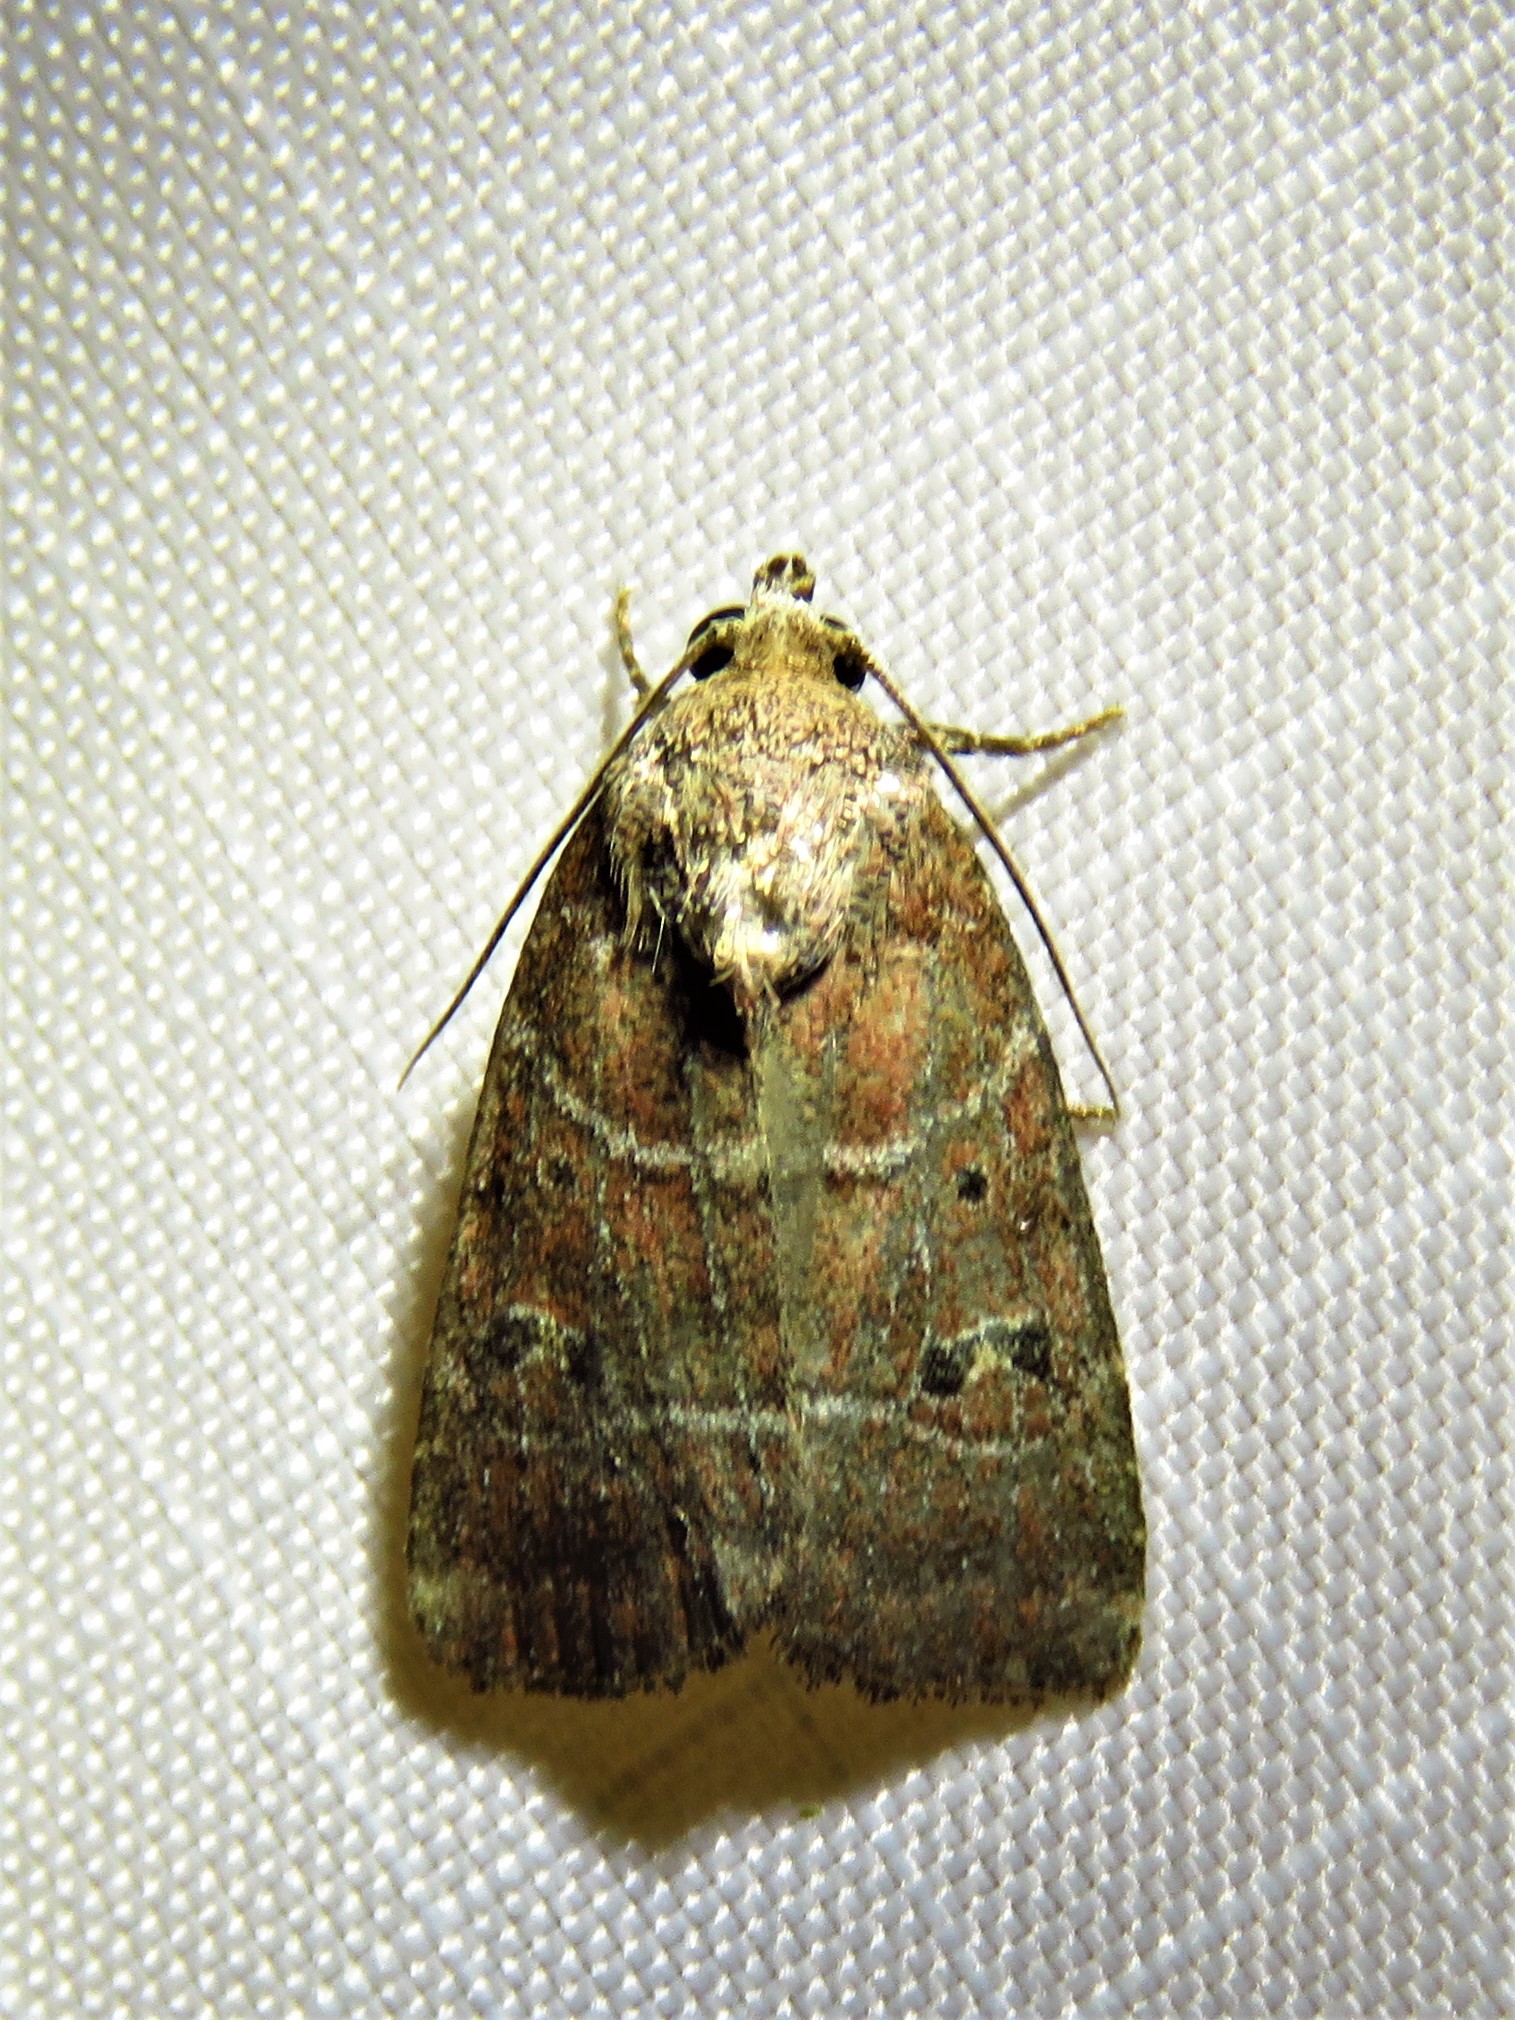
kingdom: Animalia
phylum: Arthropoda
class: Insecta
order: Lepidoptera
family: Noctuidae
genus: Elaphria
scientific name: Elaphria grata
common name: Grateful midget moth
